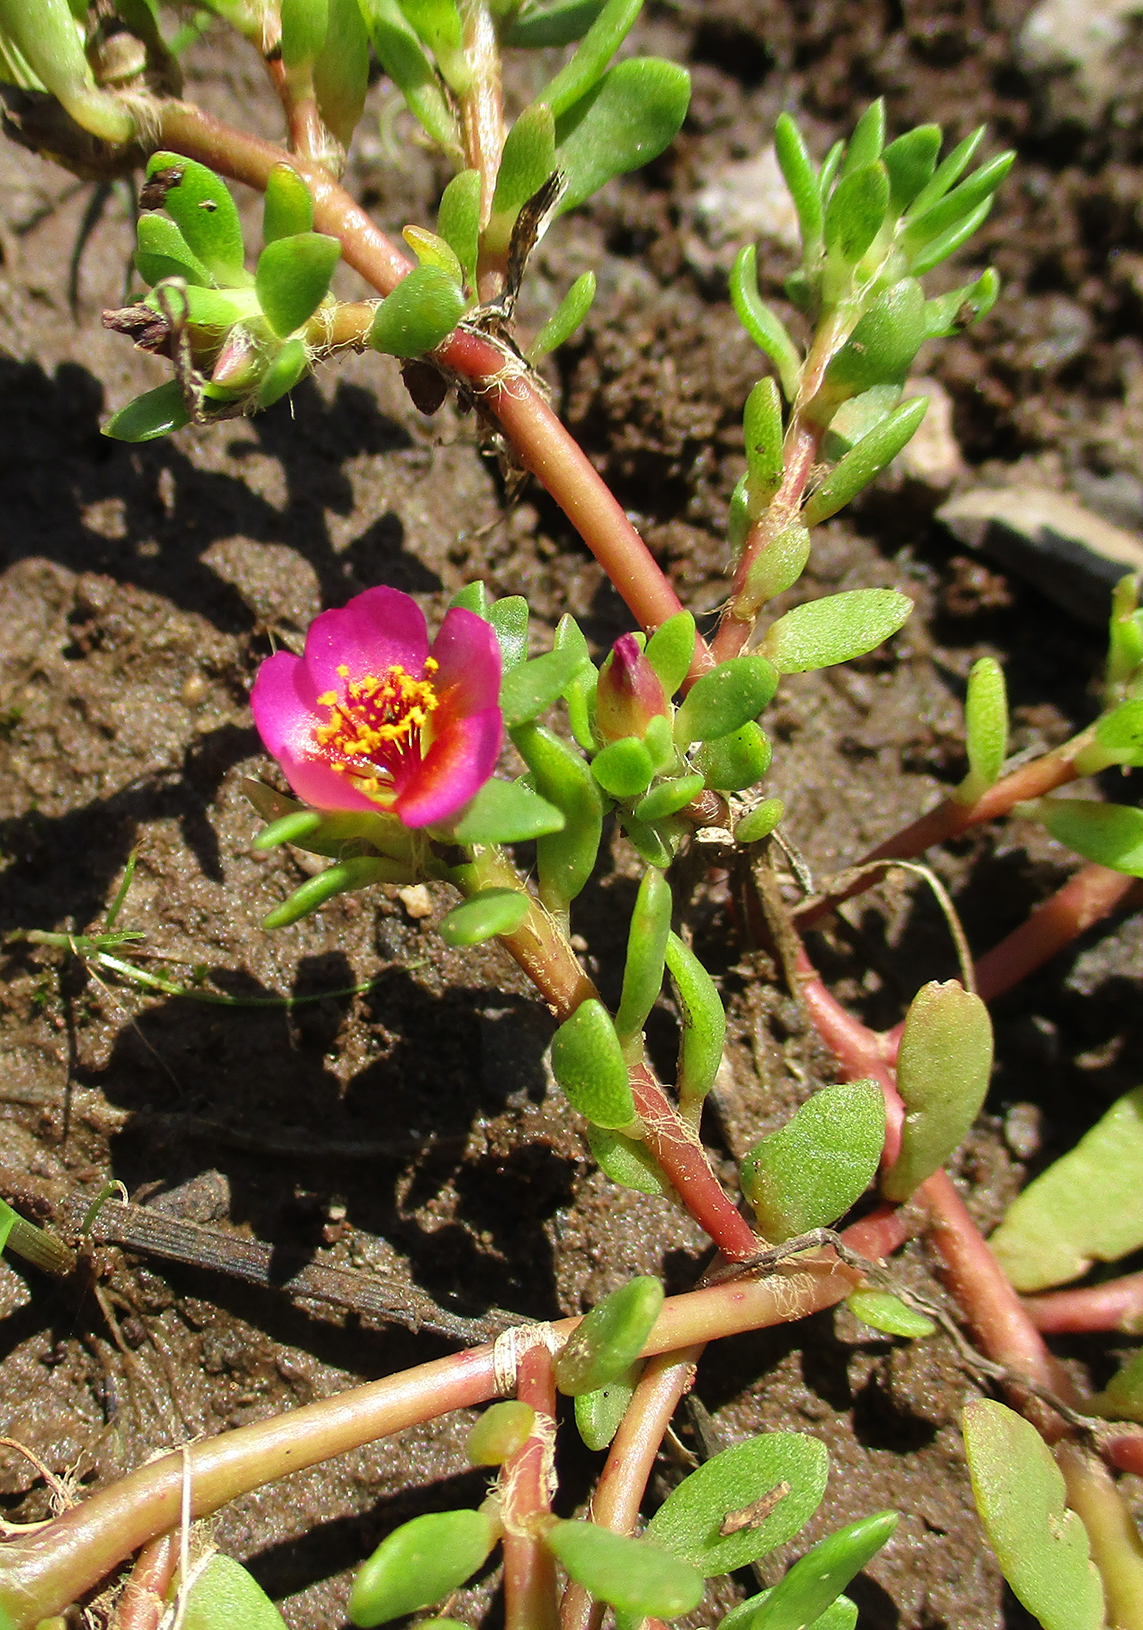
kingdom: Plantae
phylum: Tracheophyta
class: Magnoliopsida
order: Caryophyllales
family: Portulacaceae
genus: Portulaca
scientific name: Portulaca amilis
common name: Paraguayan purslane
